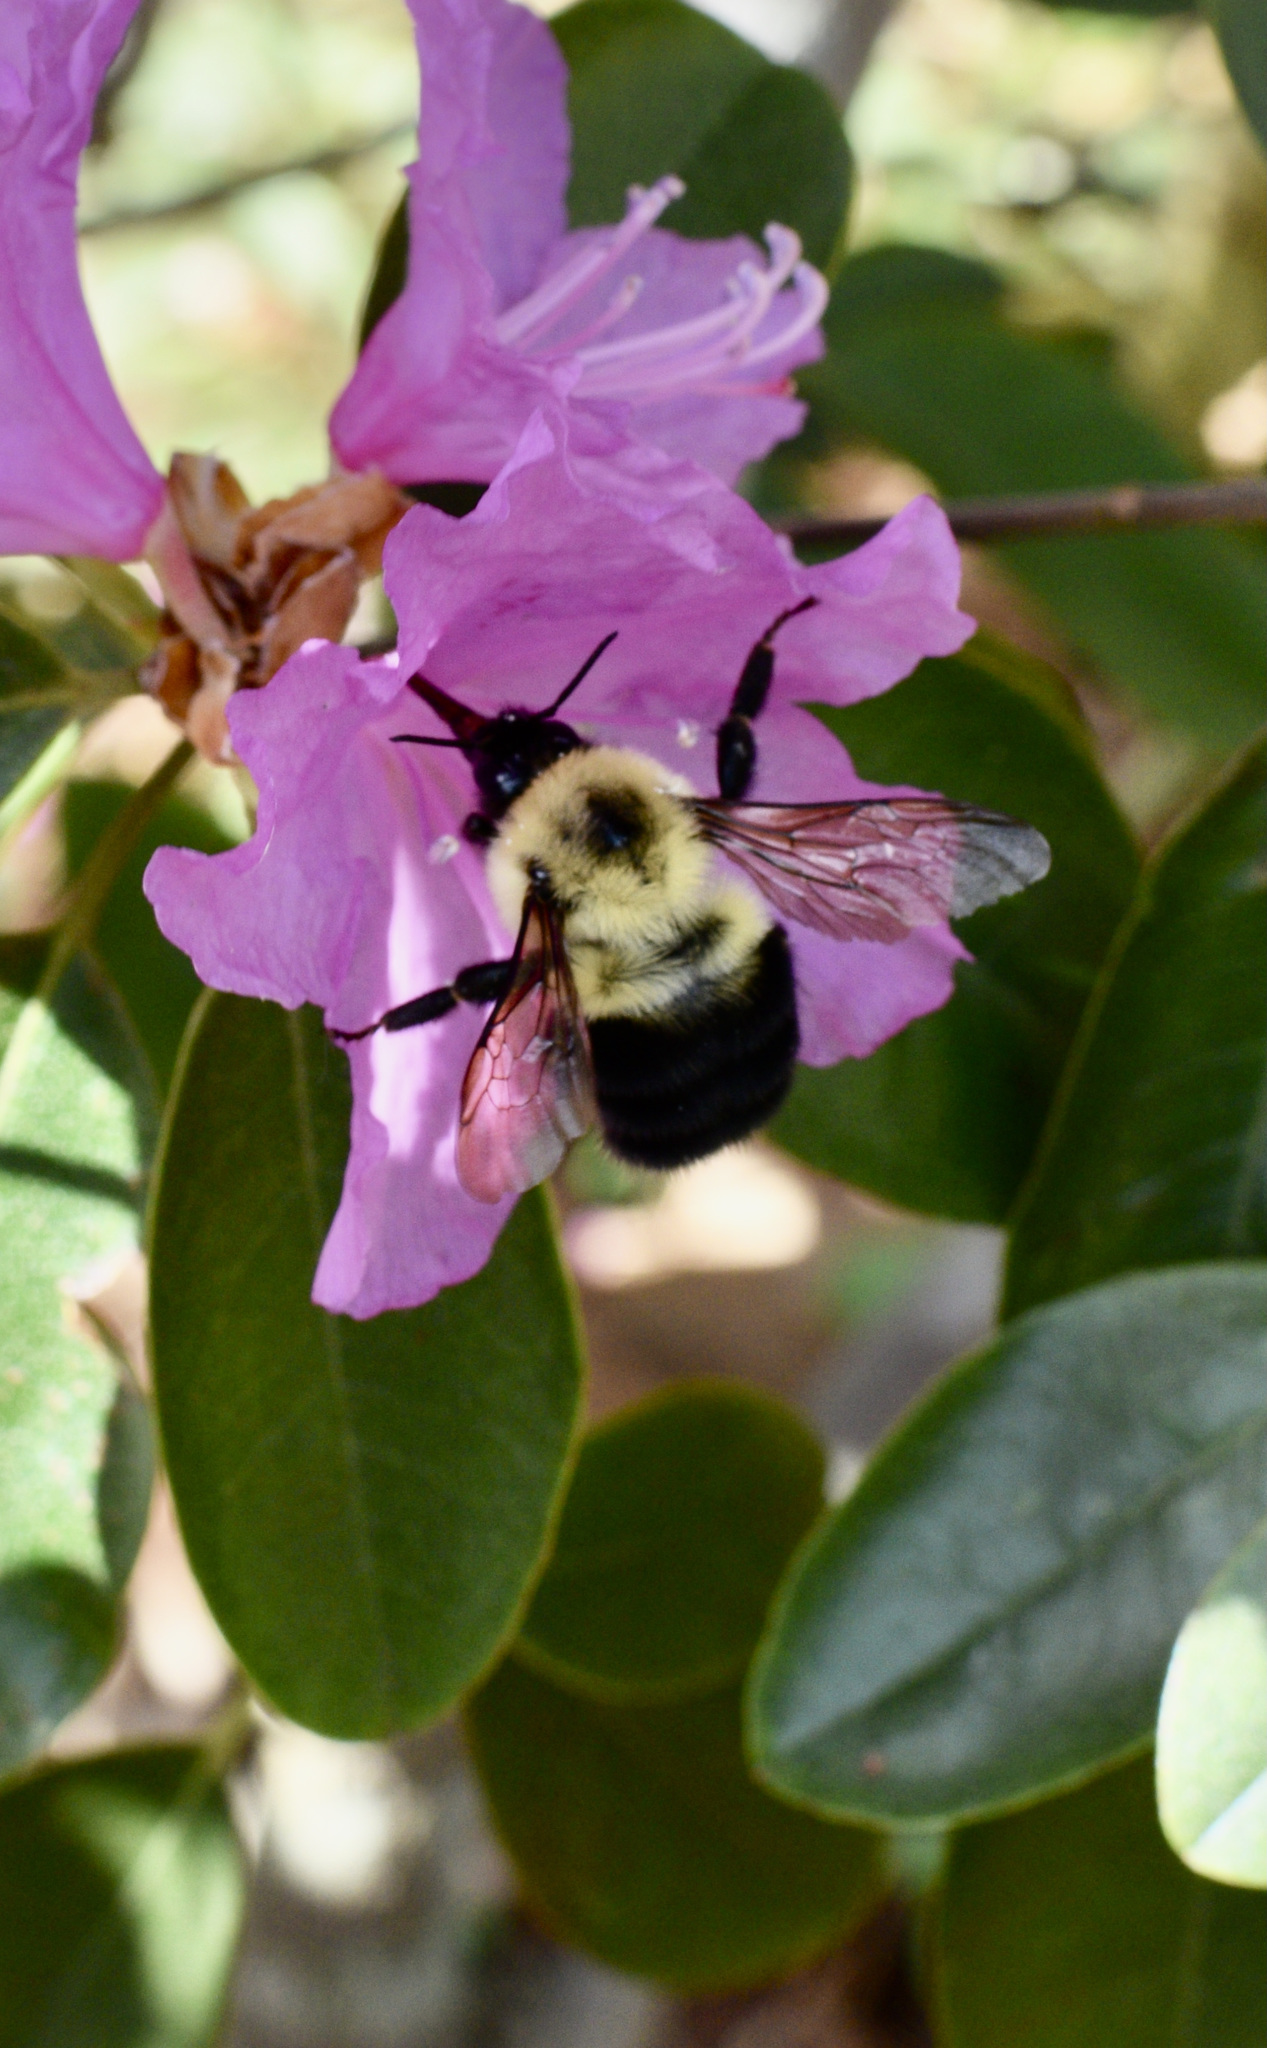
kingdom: Animalia
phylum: Arthropoda
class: Insecta
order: Hymenoptera
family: Apidae
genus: Bombus
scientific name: Bombus bimaculatus
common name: Two-spotted bumble bee
